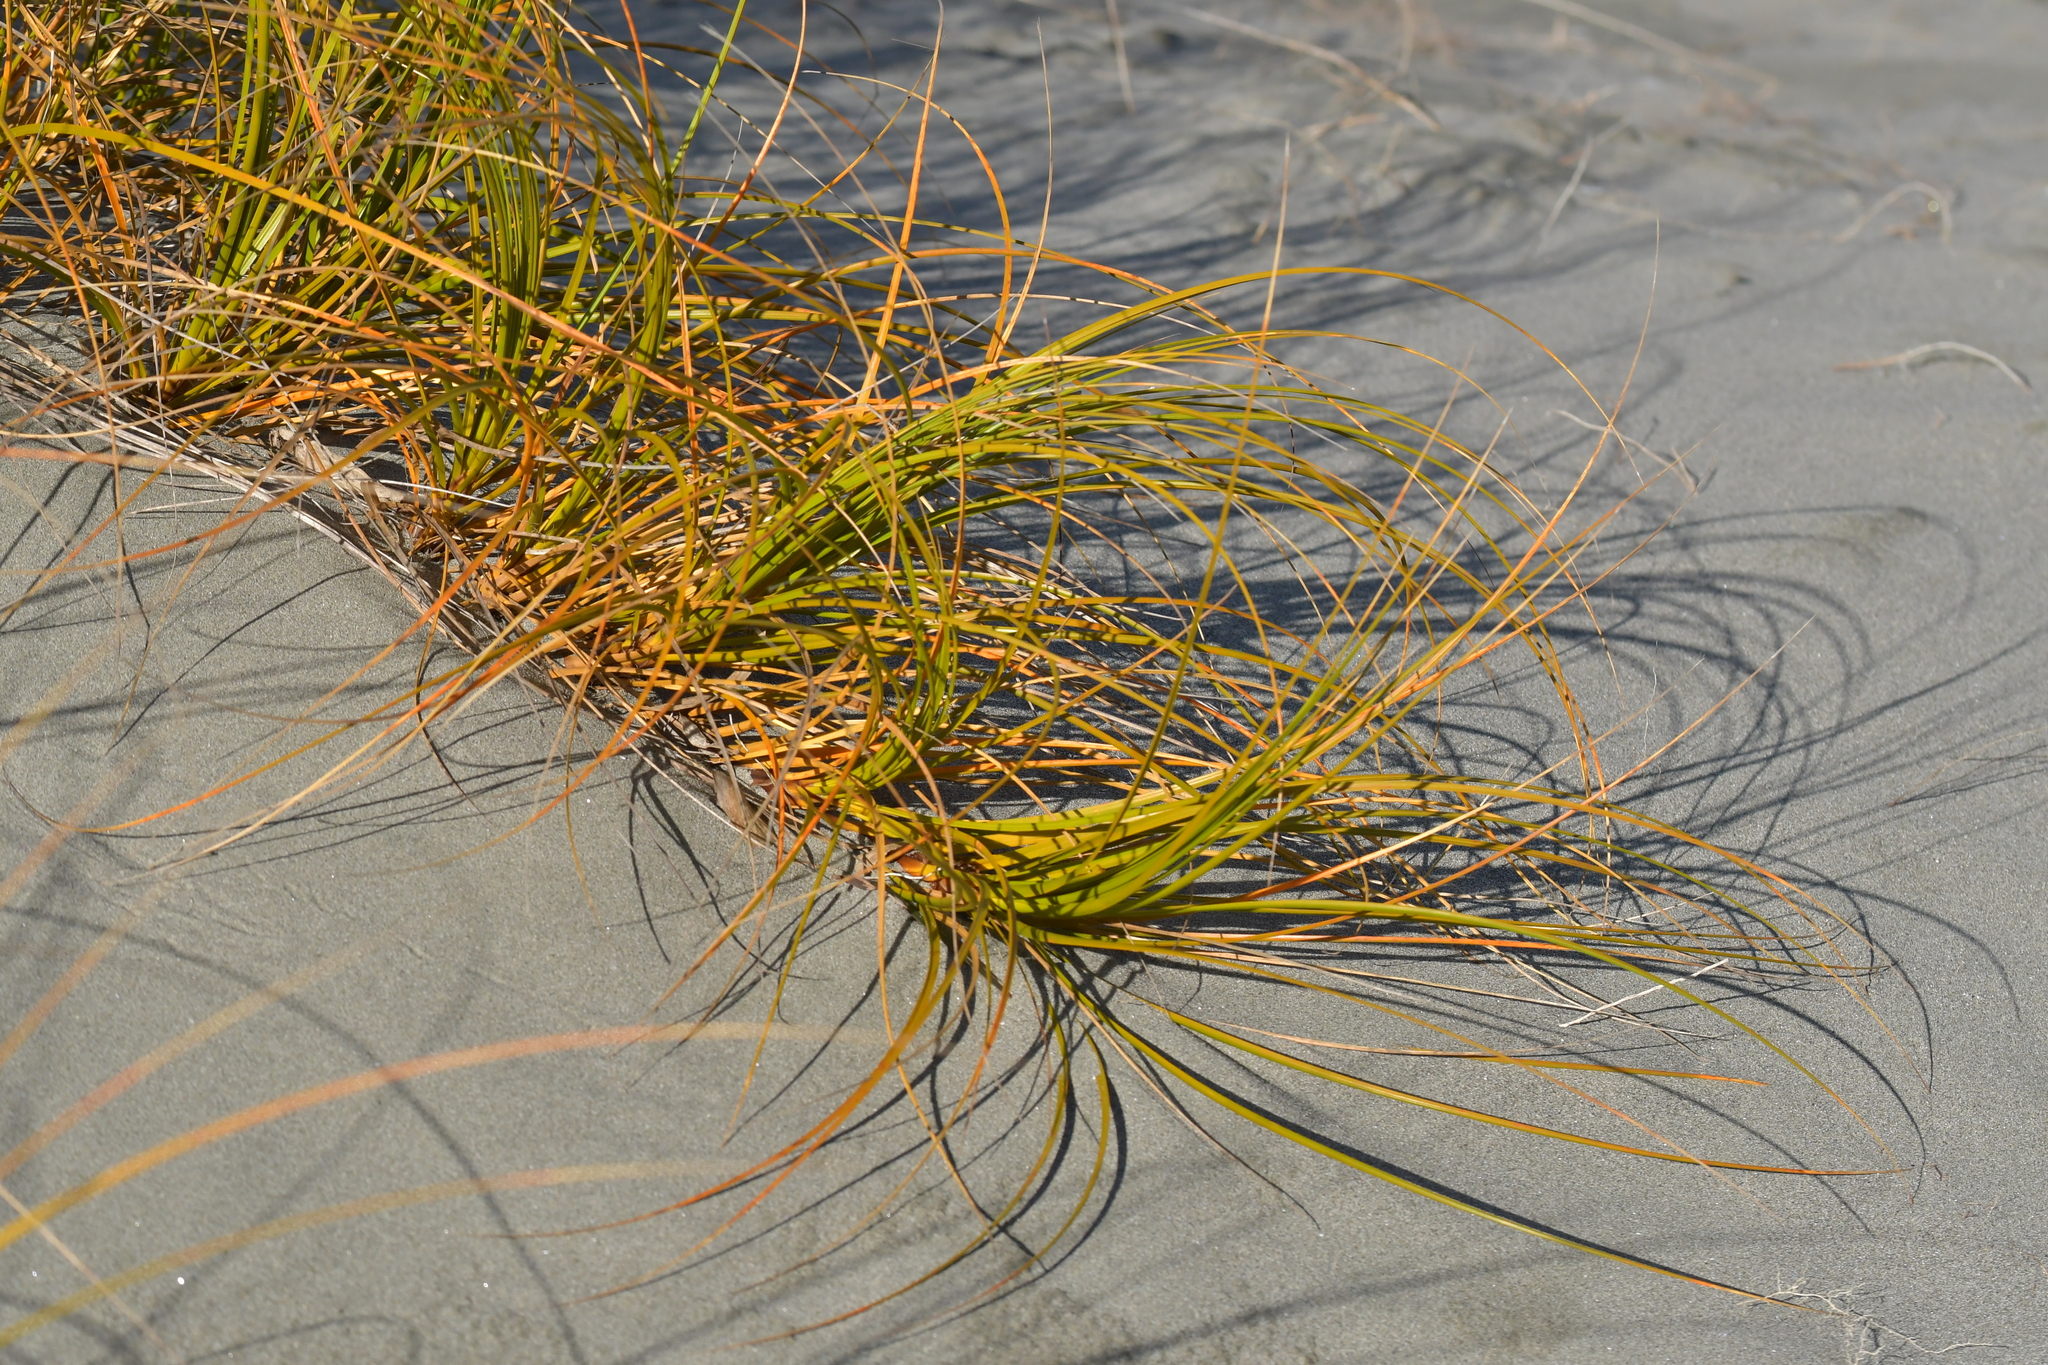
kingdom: Plantae
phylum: Tracheophyta
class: Liliopsida
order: Poales
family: Cyperaceae
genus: Ficinia
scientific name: Ficinia spiralis
